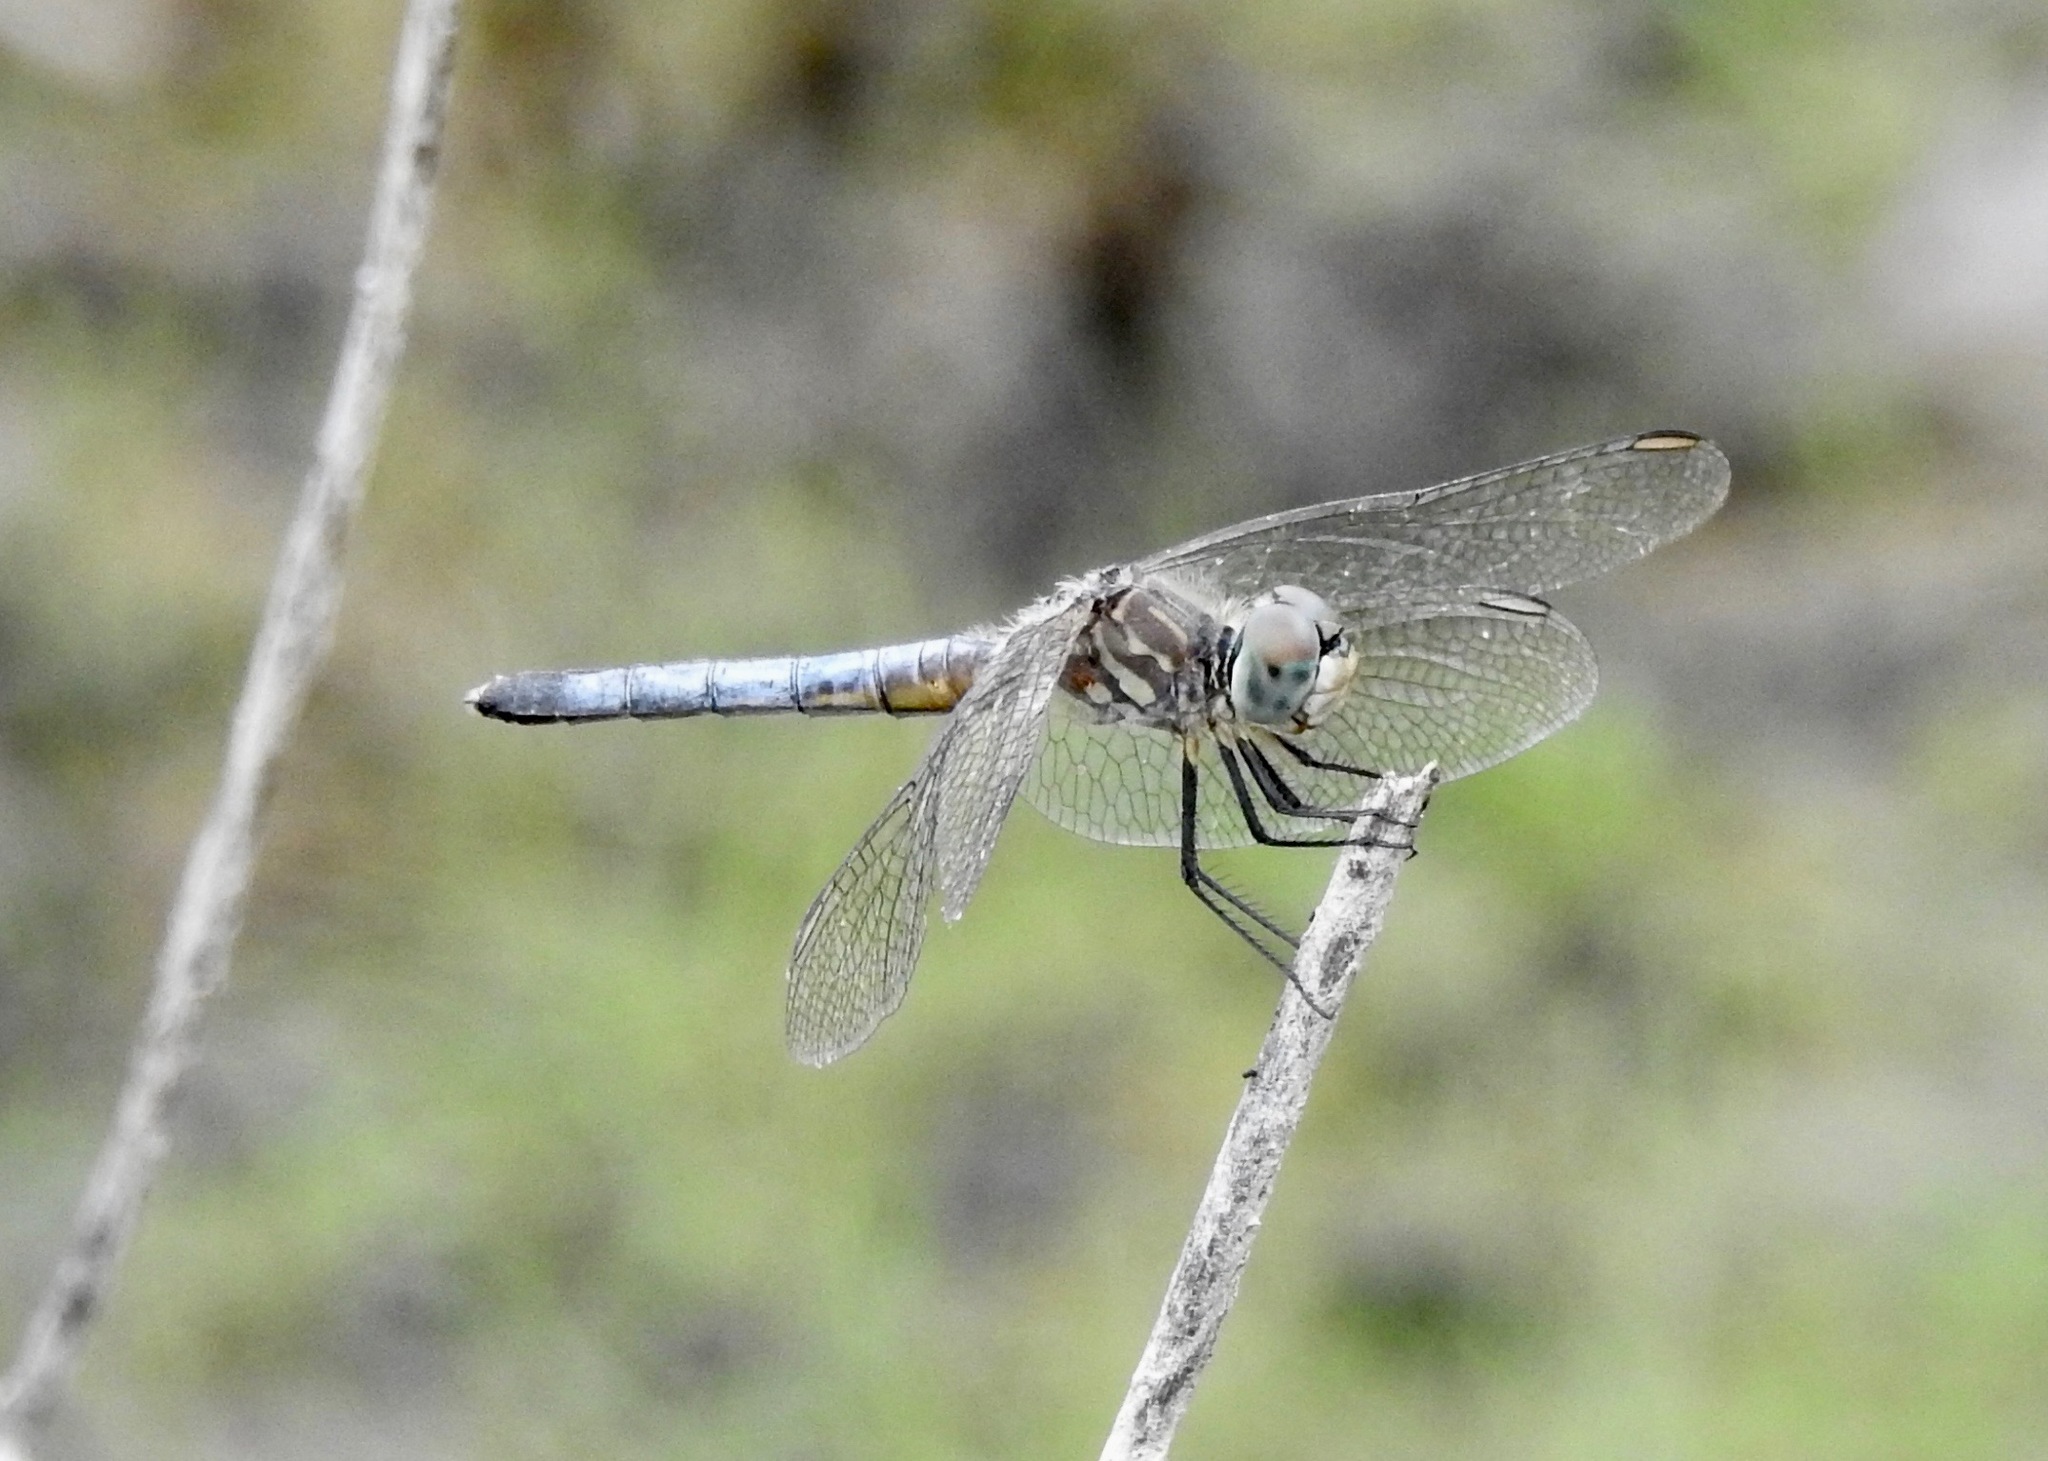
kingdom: Animalia
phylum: Arthropoda
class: Insecta
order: Odonata
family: Libellulidae
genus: Pachydiplax
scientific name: Pachydiplax longipennis
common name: Blue dasher
